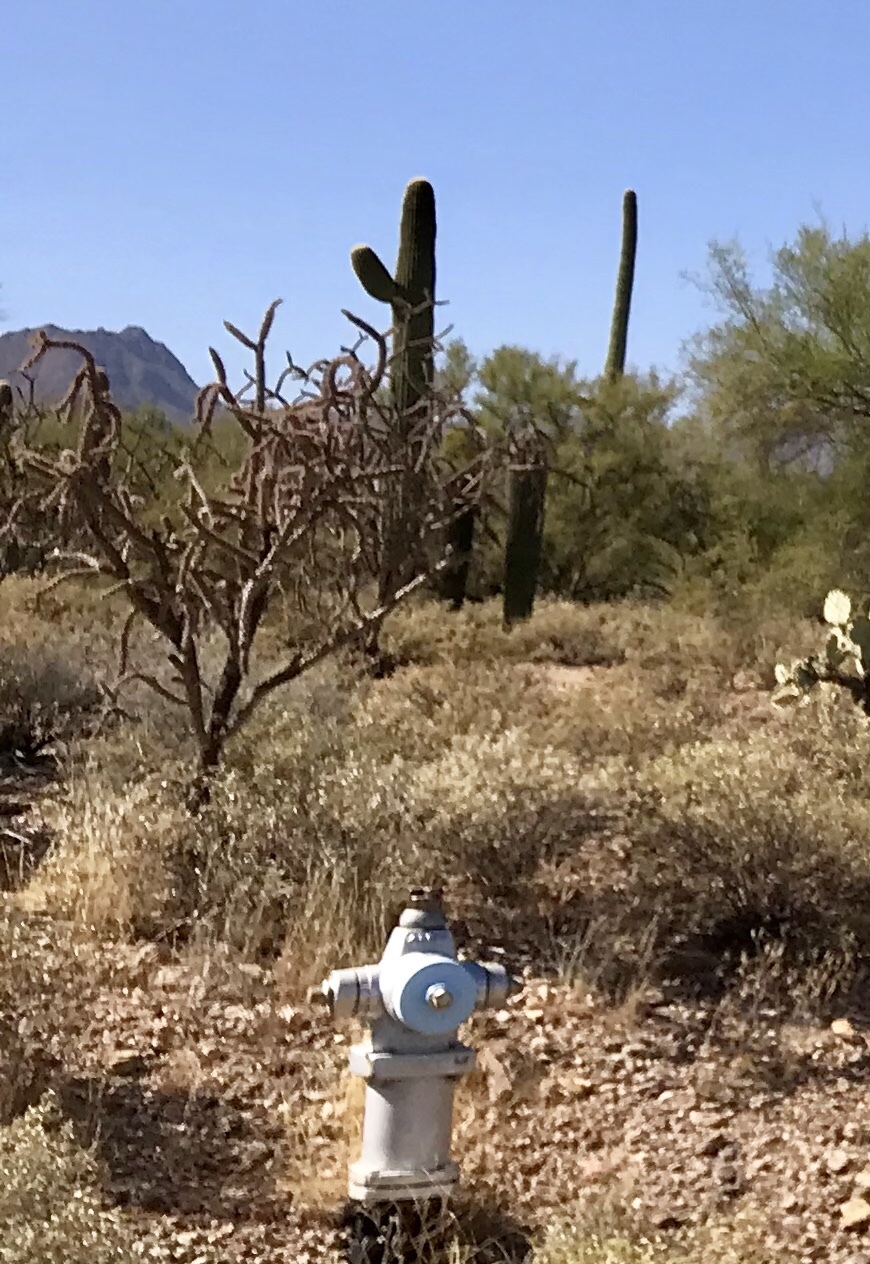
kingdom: Plantae
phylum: Tracheophyta
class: Magnoliopsida
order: Caryophyllales
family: Cactaceae
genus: Cylindropuntia
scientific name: Cylindropuntia thurberi
